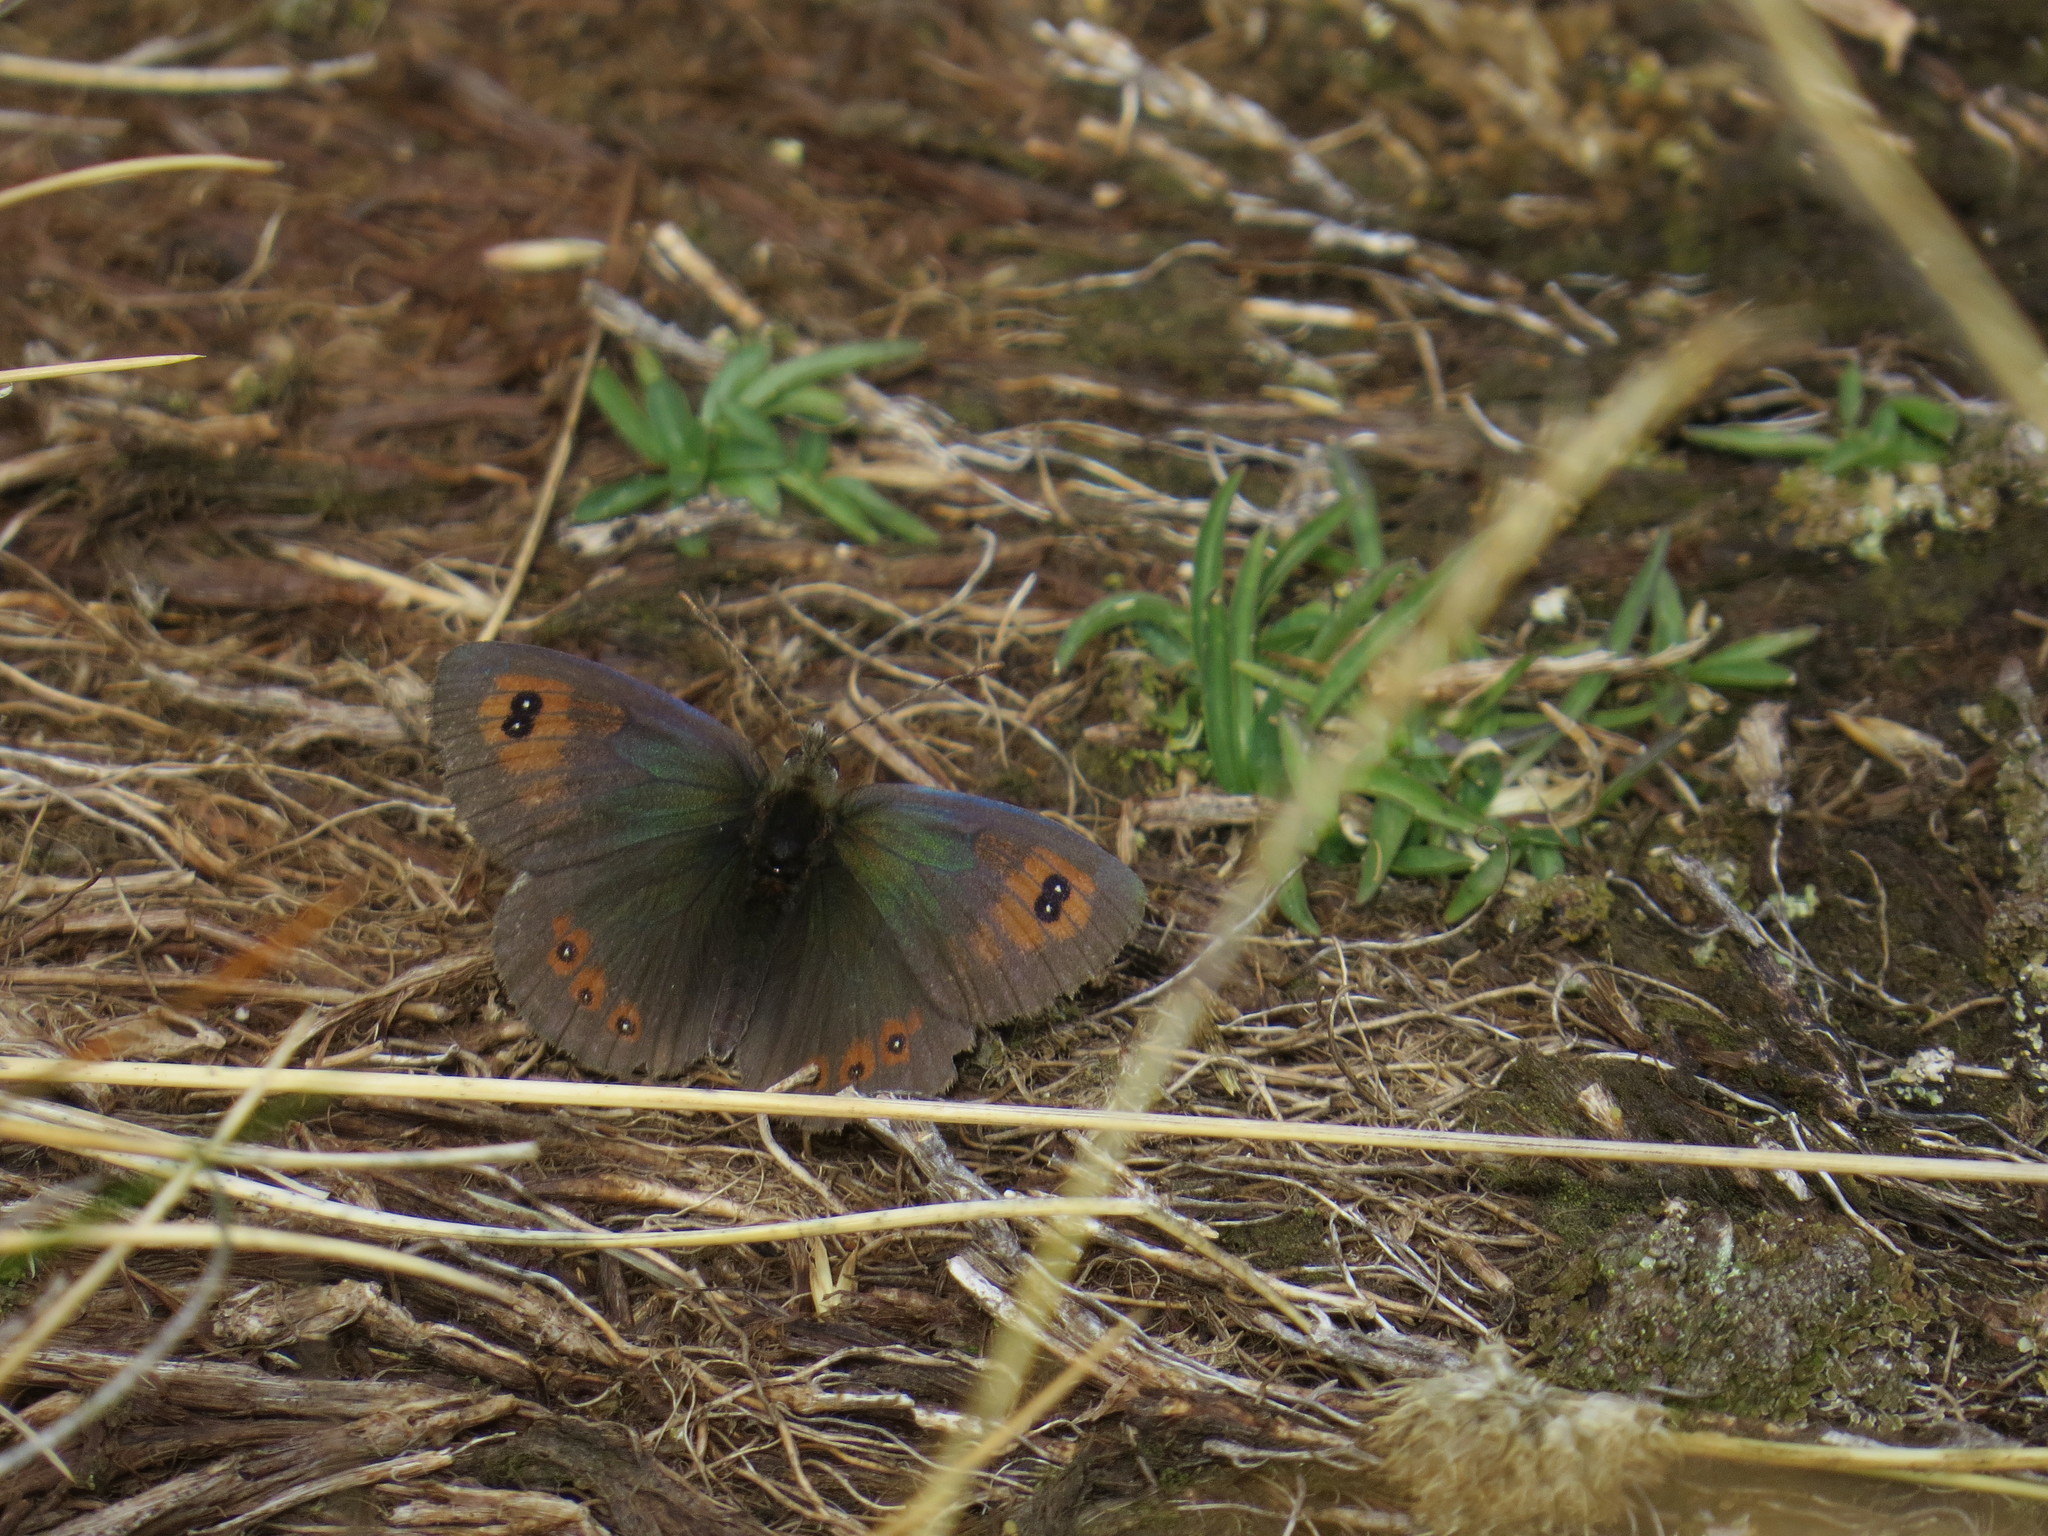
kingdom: Animalia
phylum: Arthropoda
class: Insecta
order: Lepidoptera
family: Nymphalidae
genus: Erebia
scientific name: Erebia cassioides
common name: Common brassy ringlet
